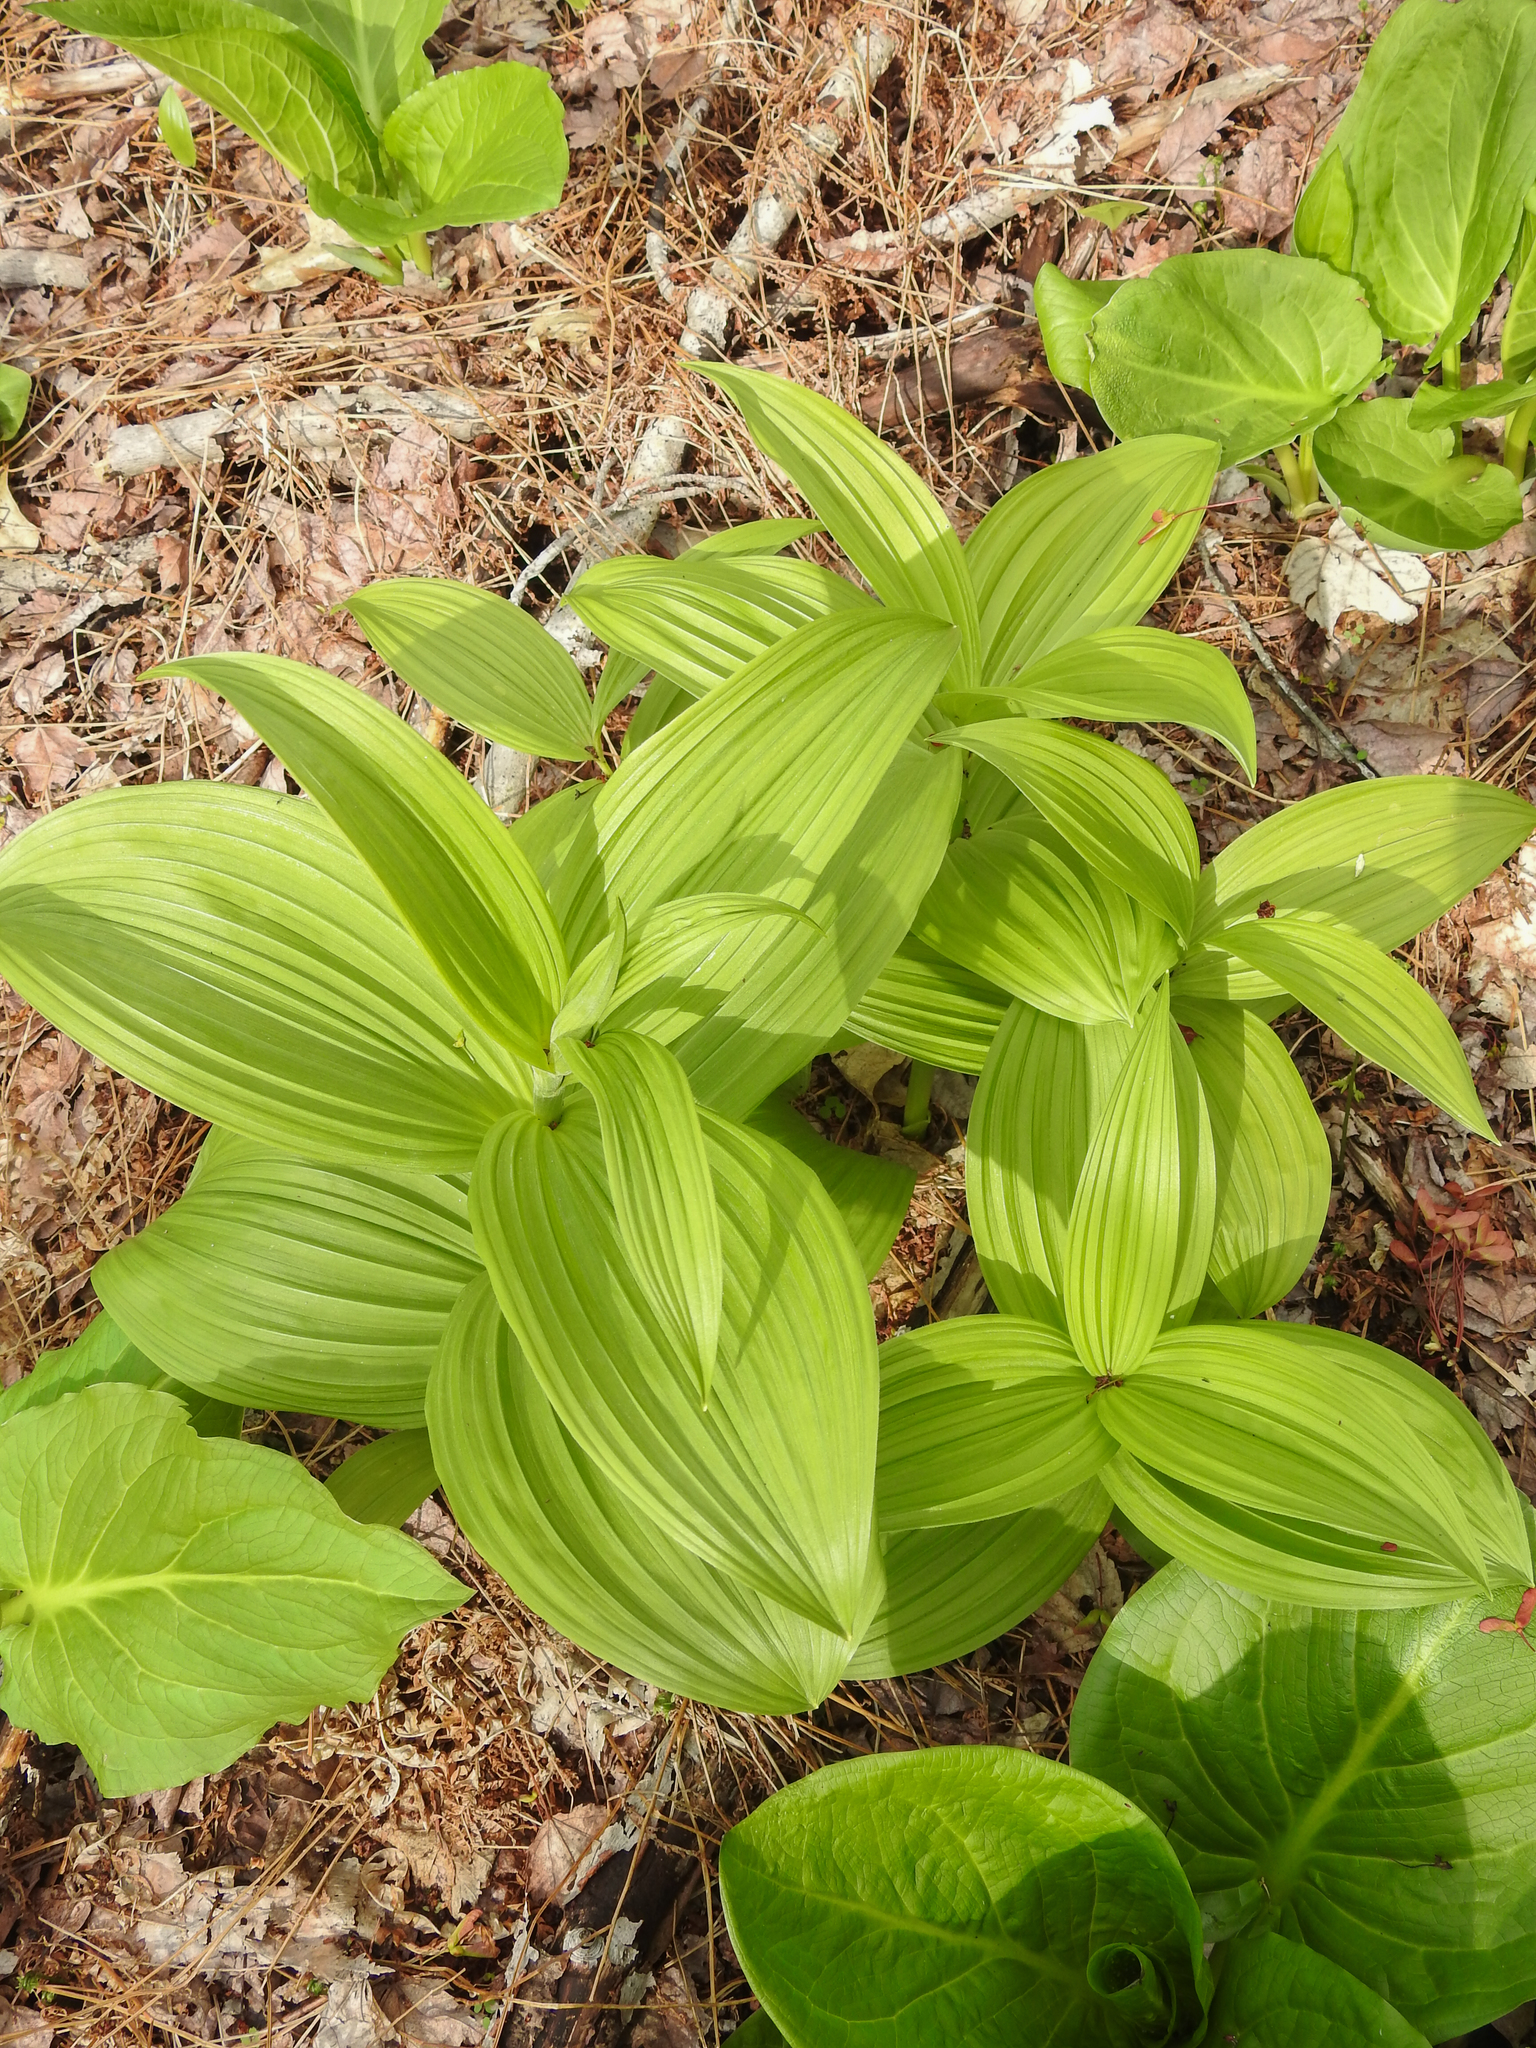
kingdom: Plantae
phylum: Tracheophyta
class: Liliopsida
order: Liliales
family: Melanthiaceae
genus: Veratrum
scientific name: Veratrum viride
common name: American false hellebore
